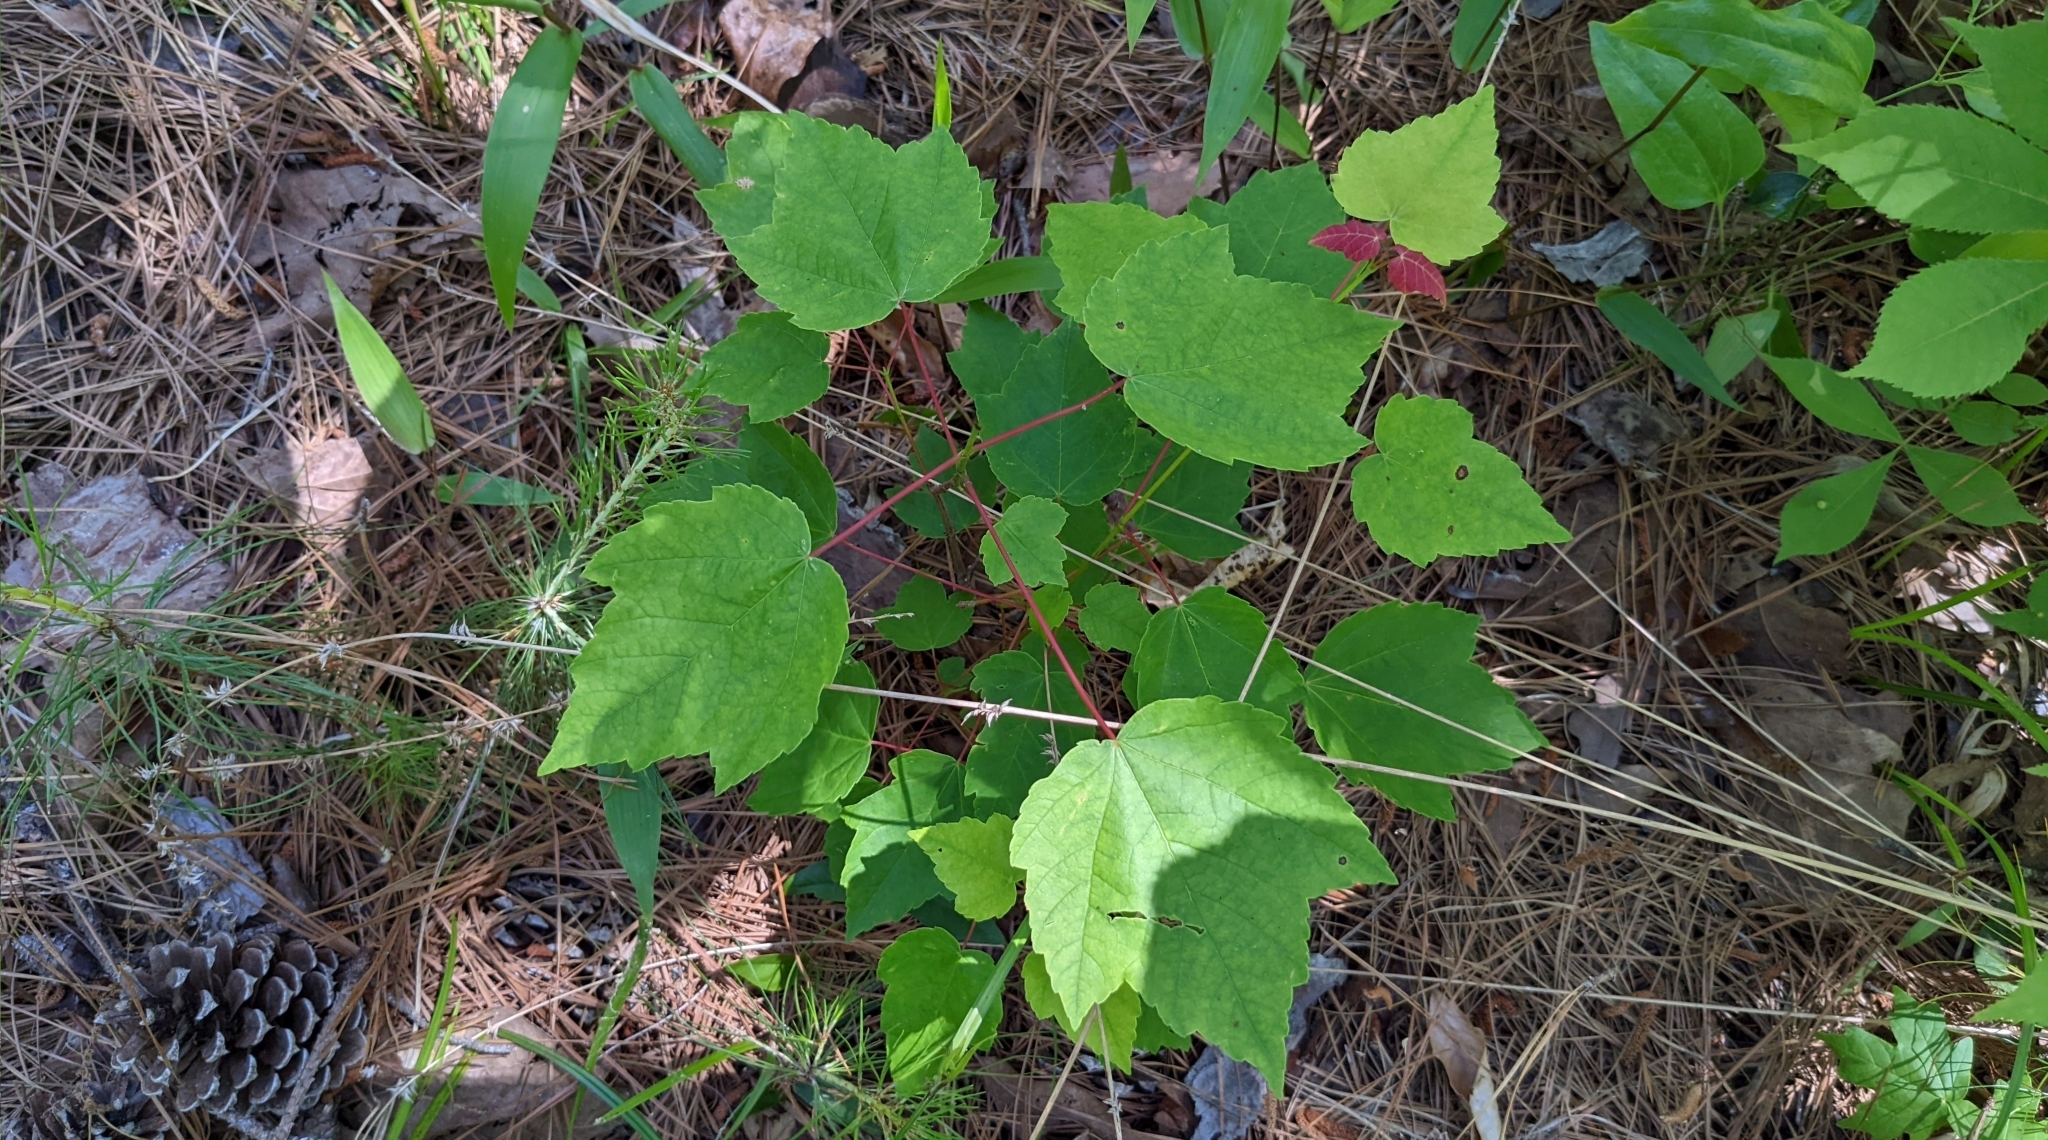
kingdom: Plantae
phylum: Tracheophyta
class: Magnoliopsida
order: Sapindales
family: Sapindaceae
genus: Acer
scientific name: Acer rubrum
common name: Red maple
